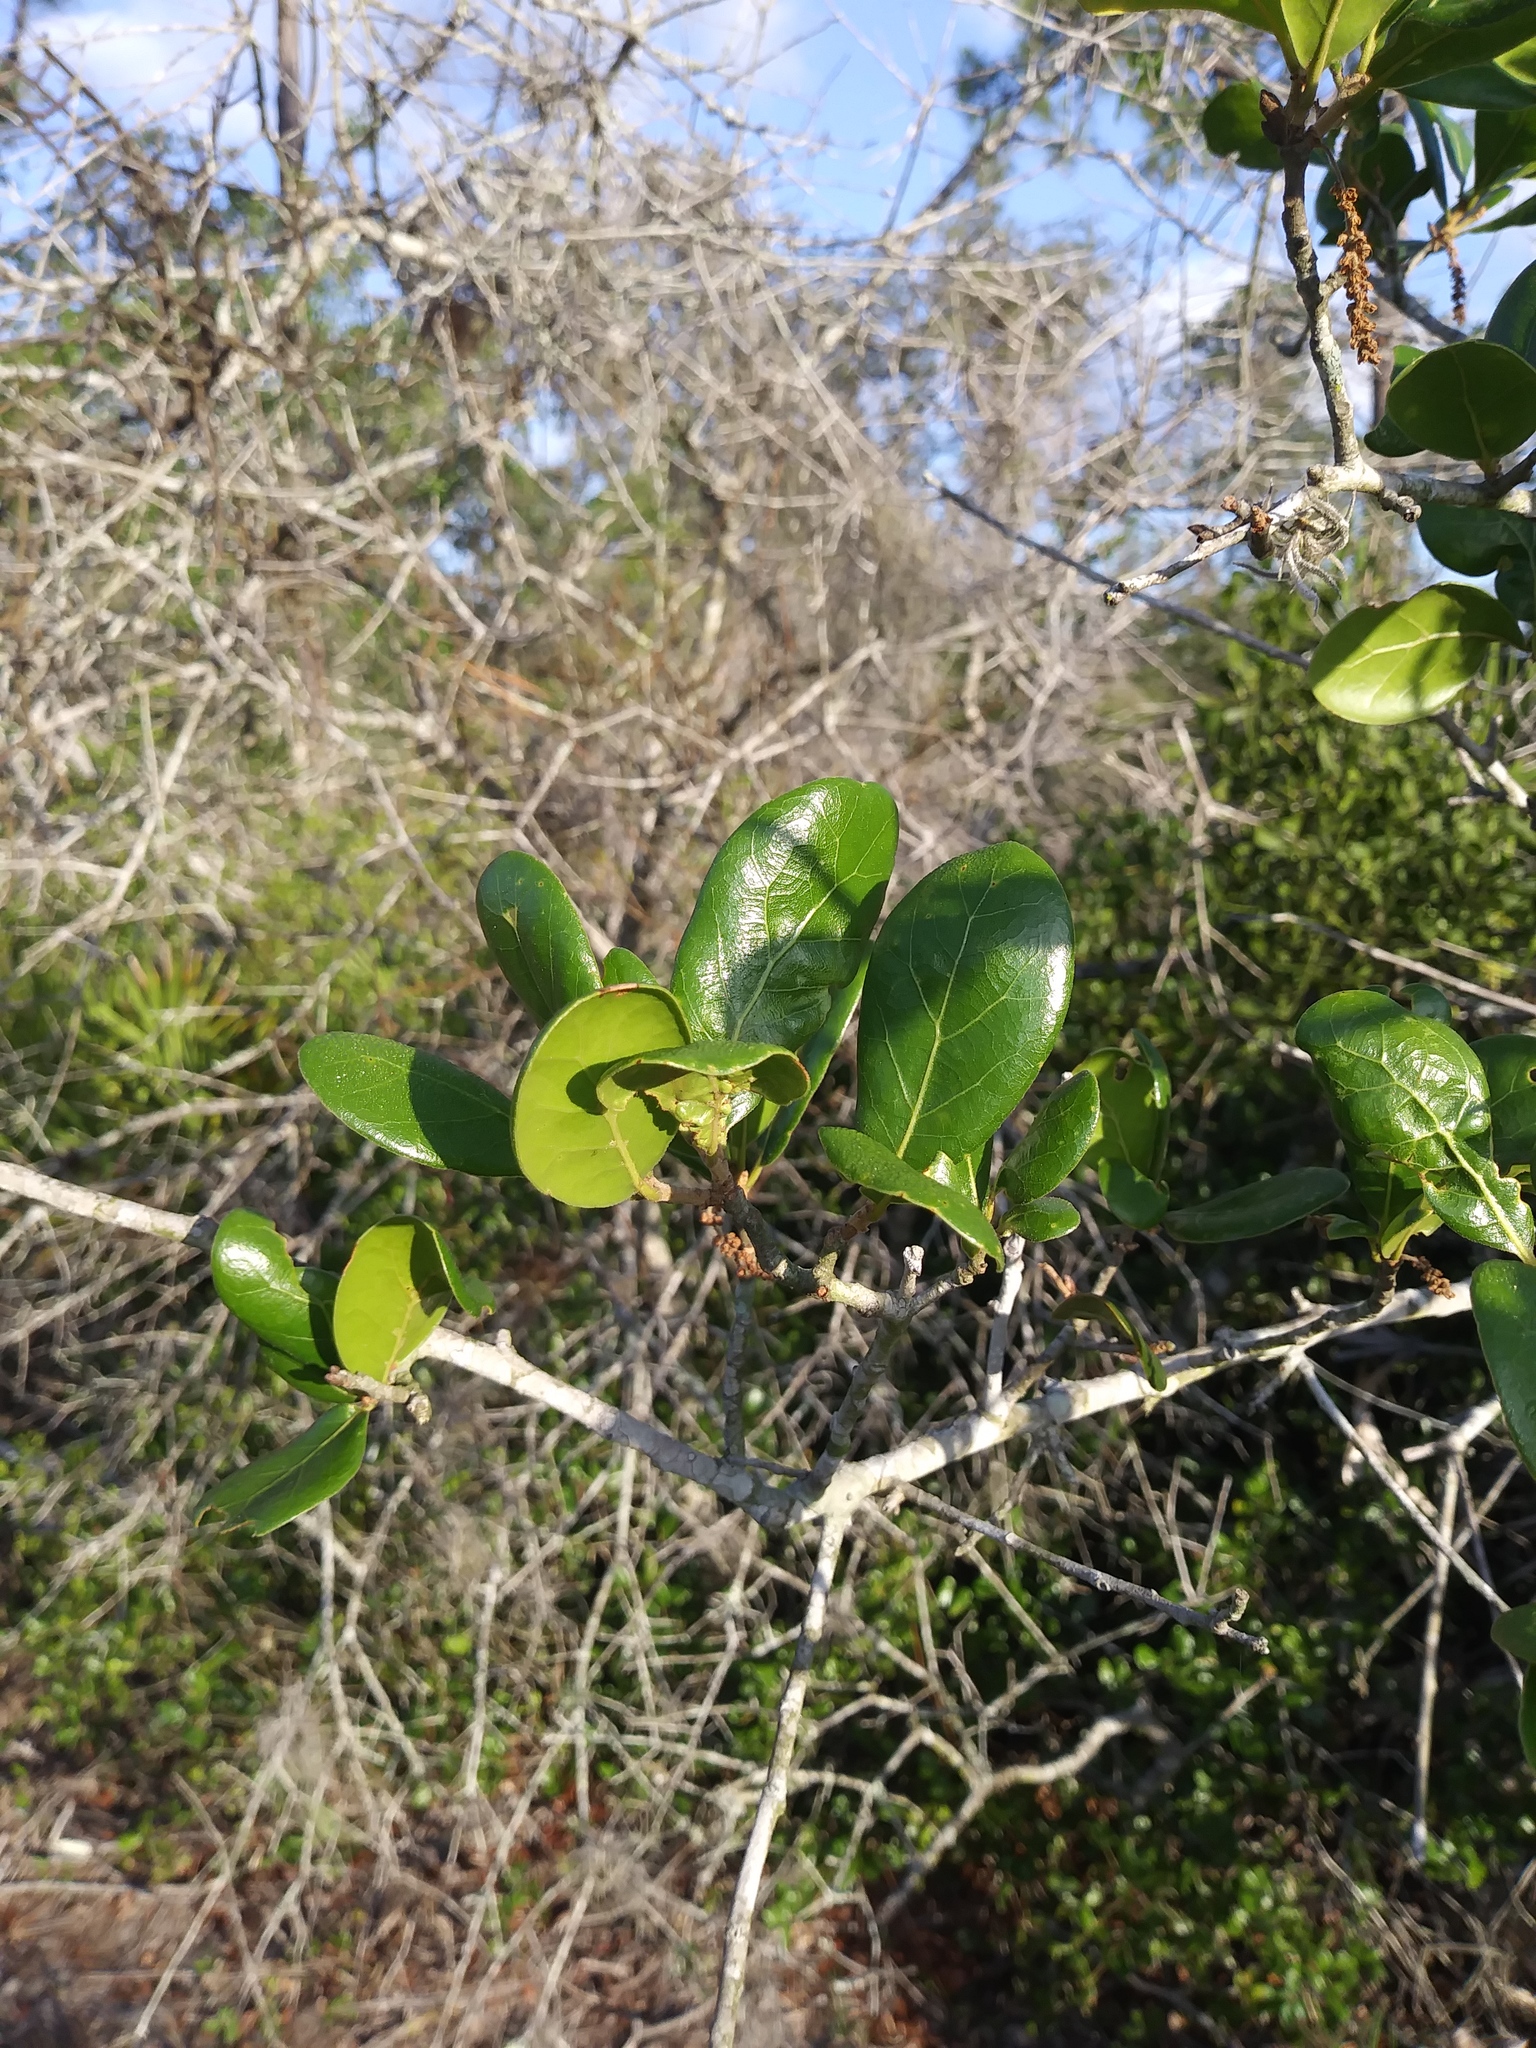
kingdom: Plantae
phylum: Tracheophyta
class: Magnoliopsida
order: Fagales
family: Fagaceae
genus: Quercus
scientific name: Quercus myrtifolia
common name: Myrtle oak
